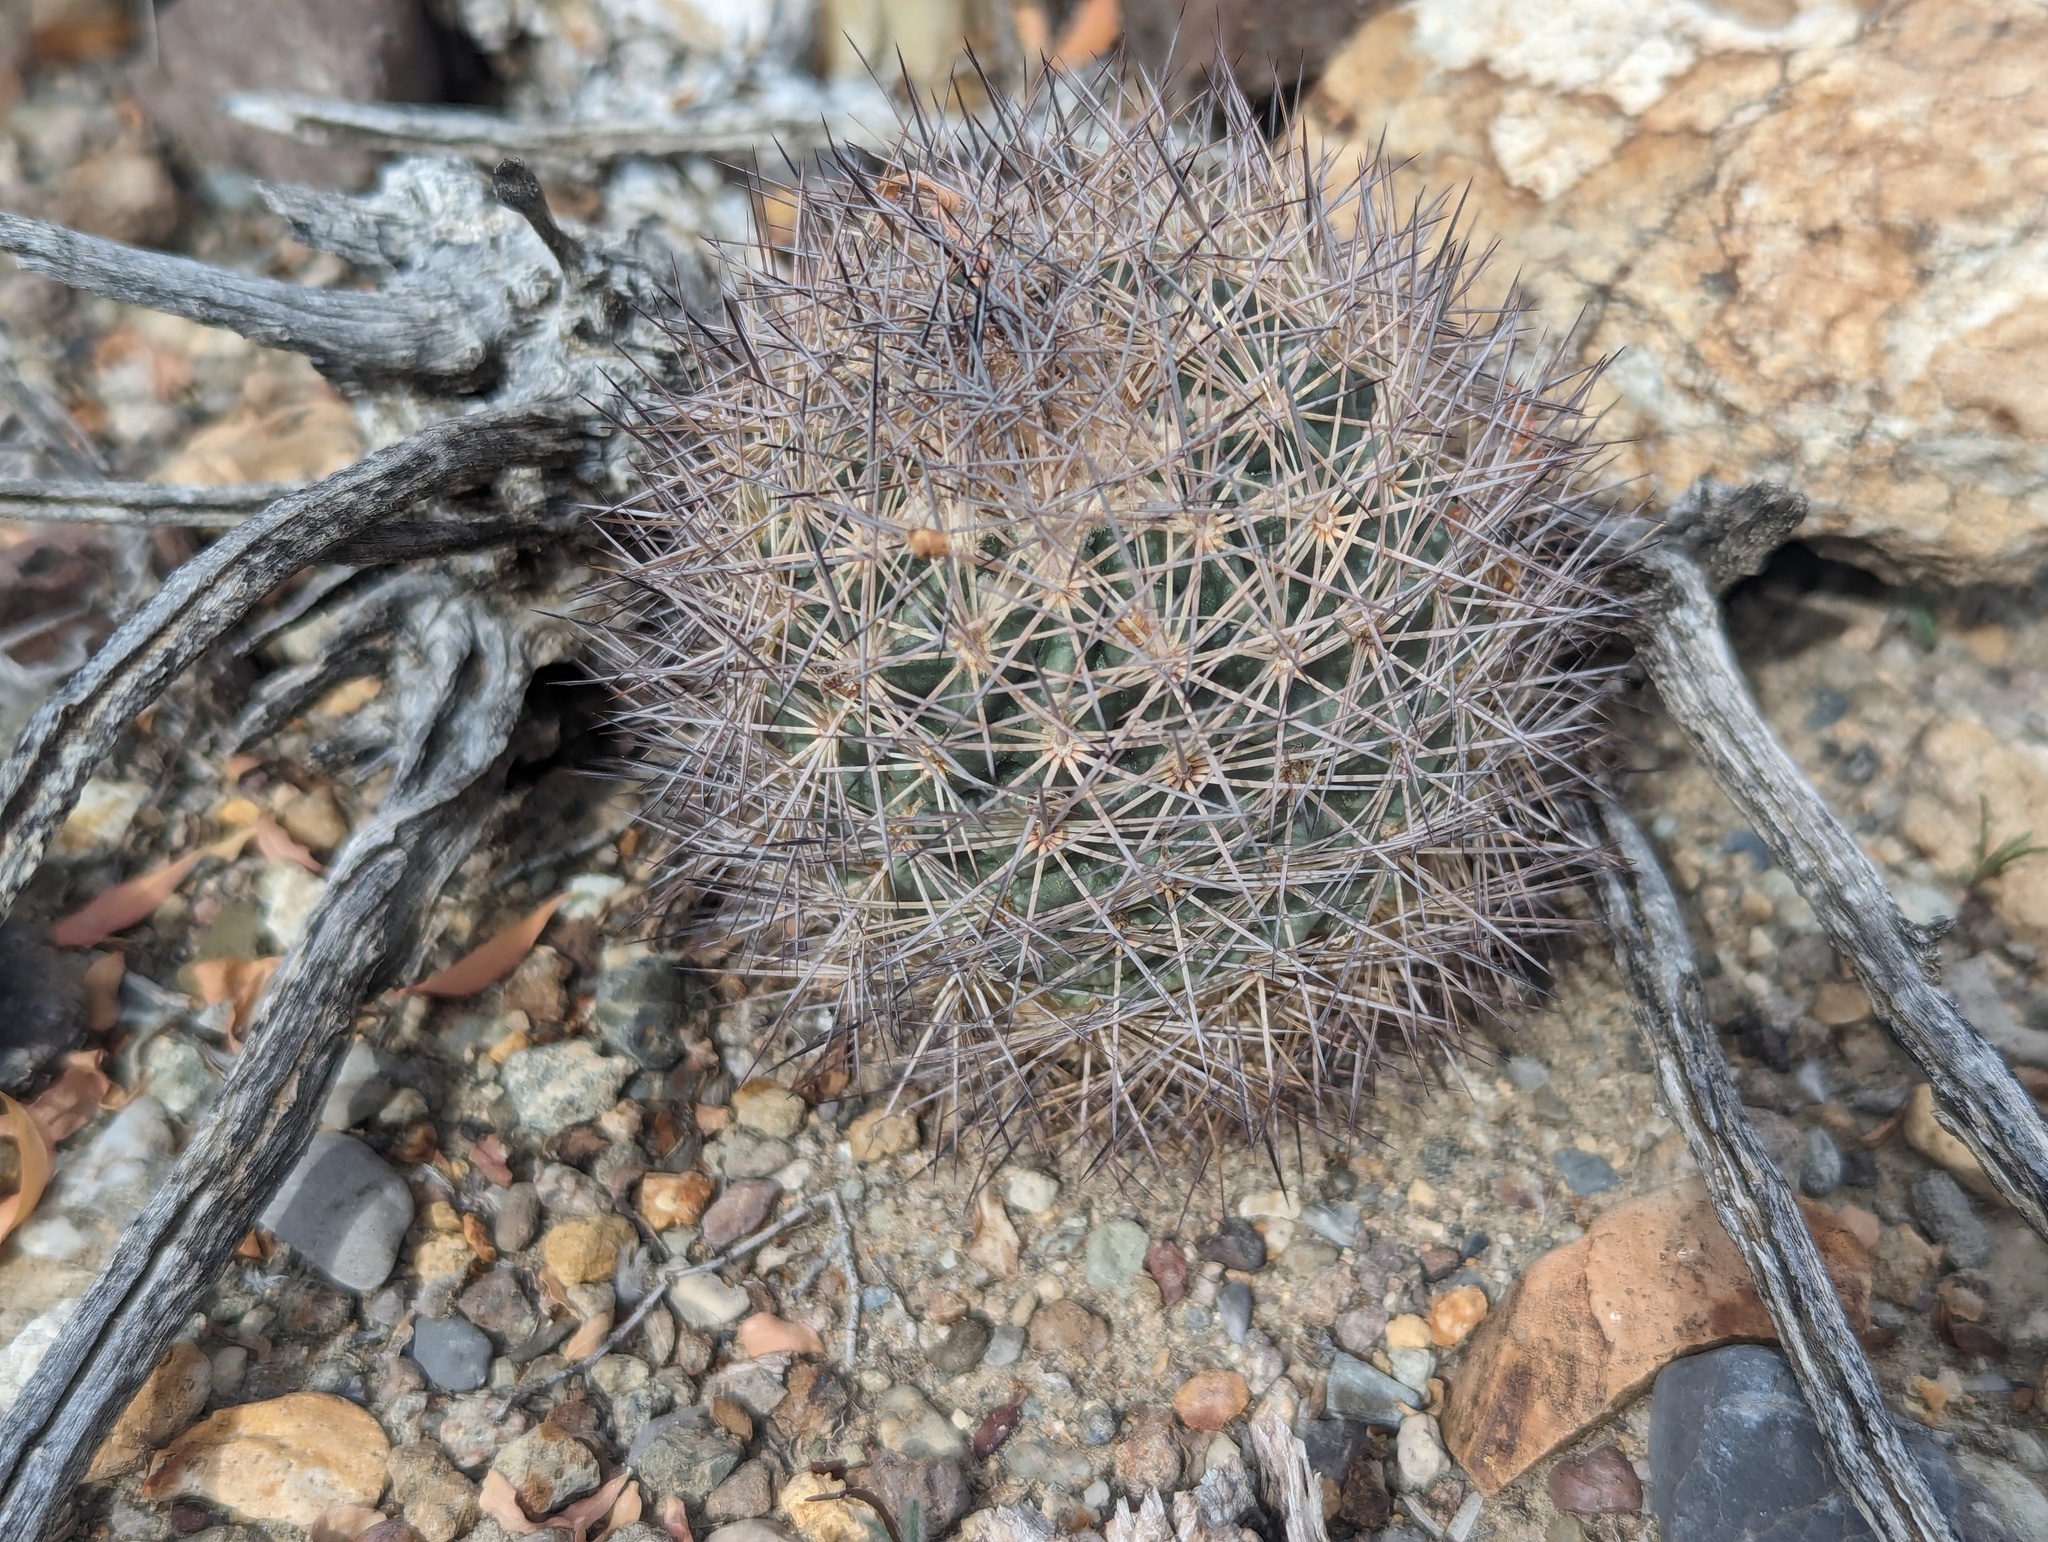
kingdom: Plantae
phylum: Tracheophyta
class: Magnoliopsida
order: Caryophyllales
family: Cactaceae
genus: Sclerocactus
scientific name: Sclerocactus warnockii
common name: Pineapple cactus
